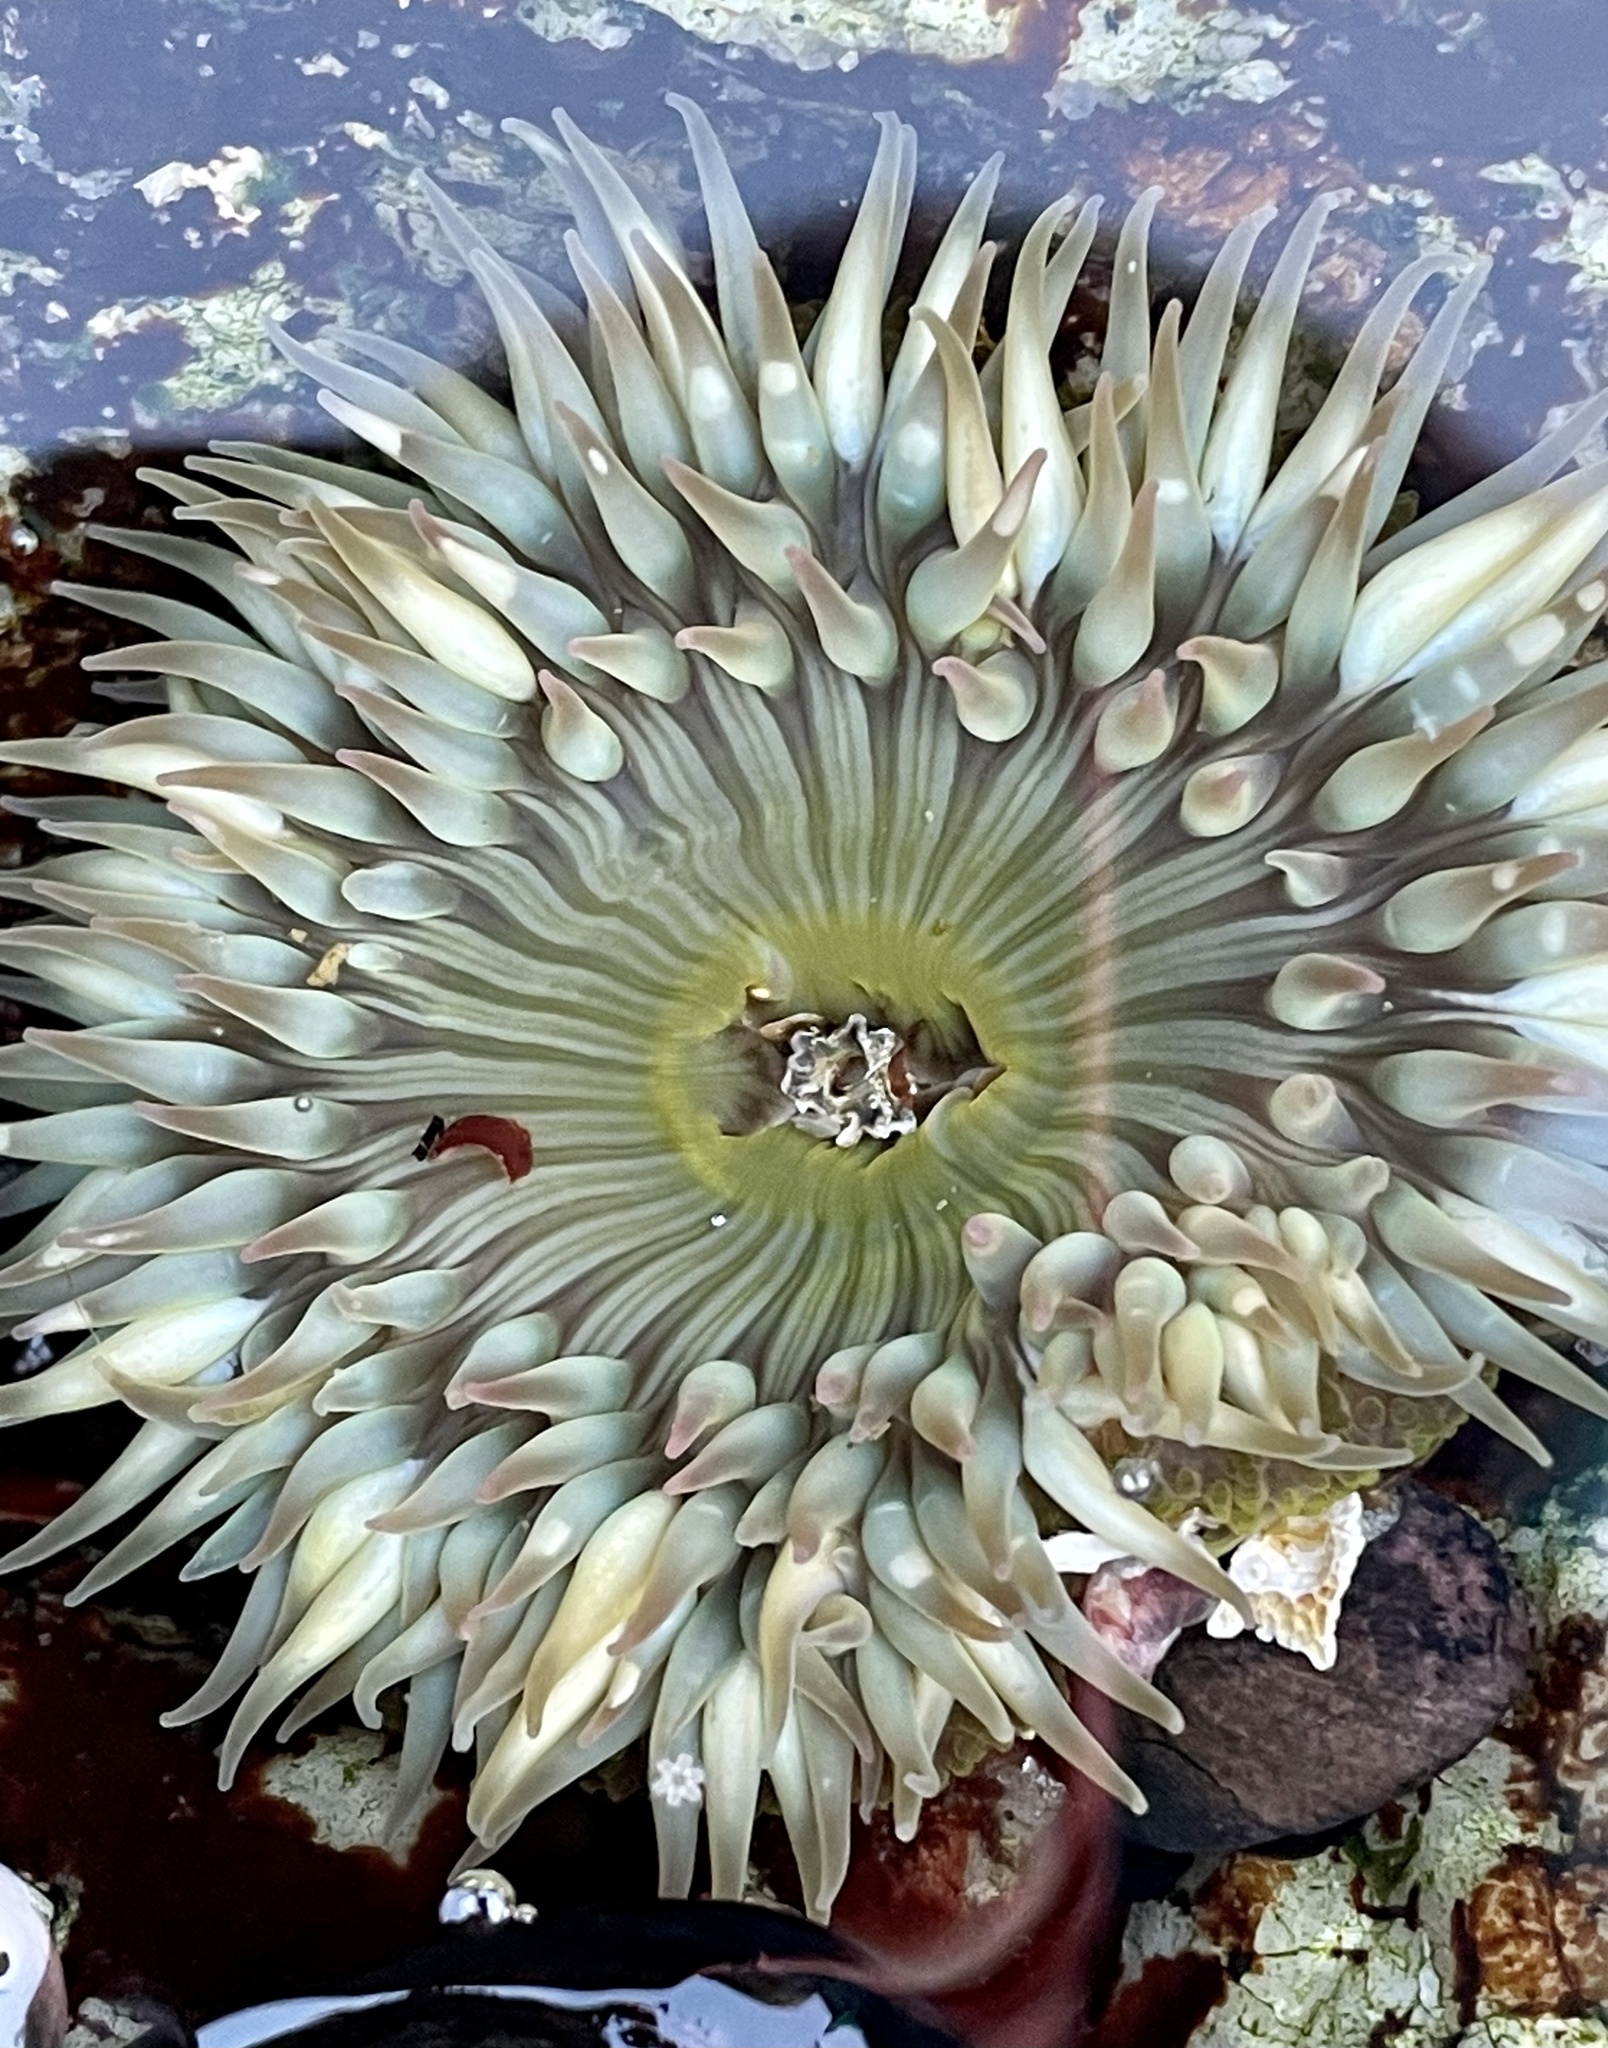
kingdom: Animalia
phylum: Cnidaria
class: Anthozoa
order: Actiniaria
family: Actiniidae
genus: Anthopleura
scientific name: Anthopleura sola
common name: Sun anemone
